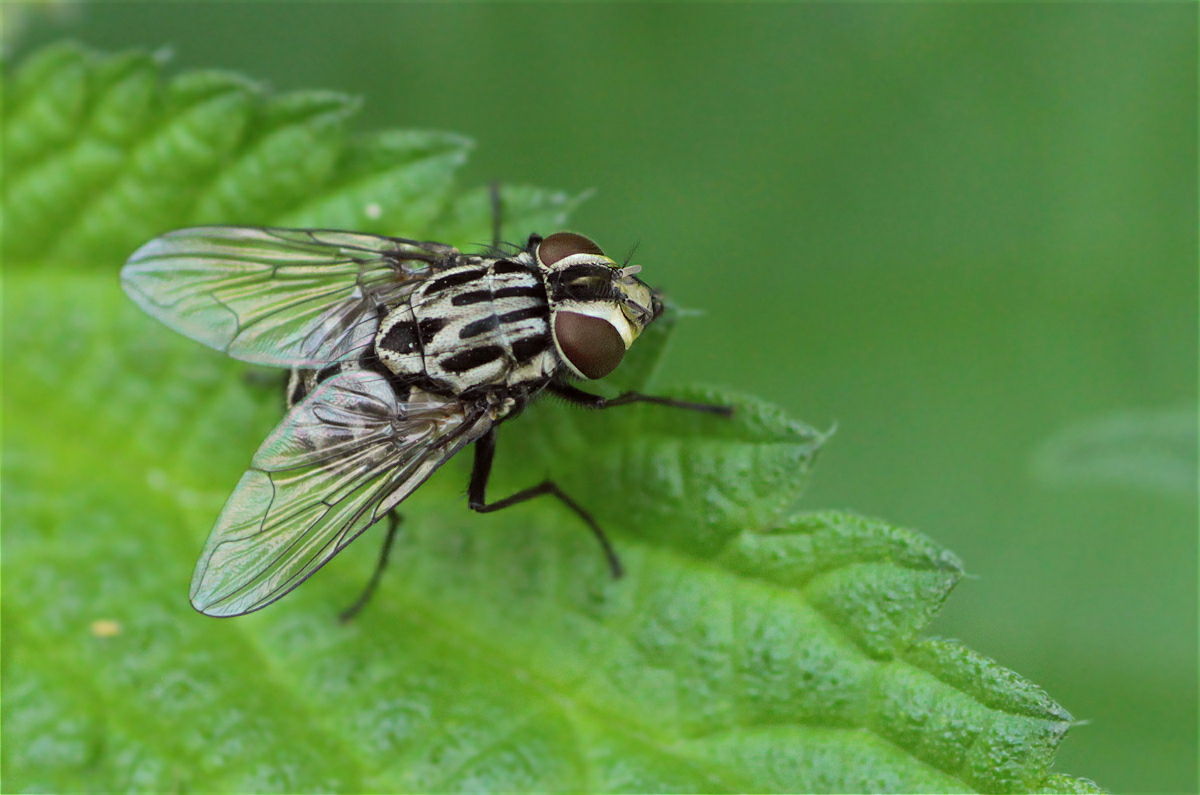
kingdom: Animalia
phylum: Arthropoda
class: Insecta
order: Diptera
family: Muscidae
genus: Graphomya
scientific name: Graphomya maculata
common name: Muscid fly
